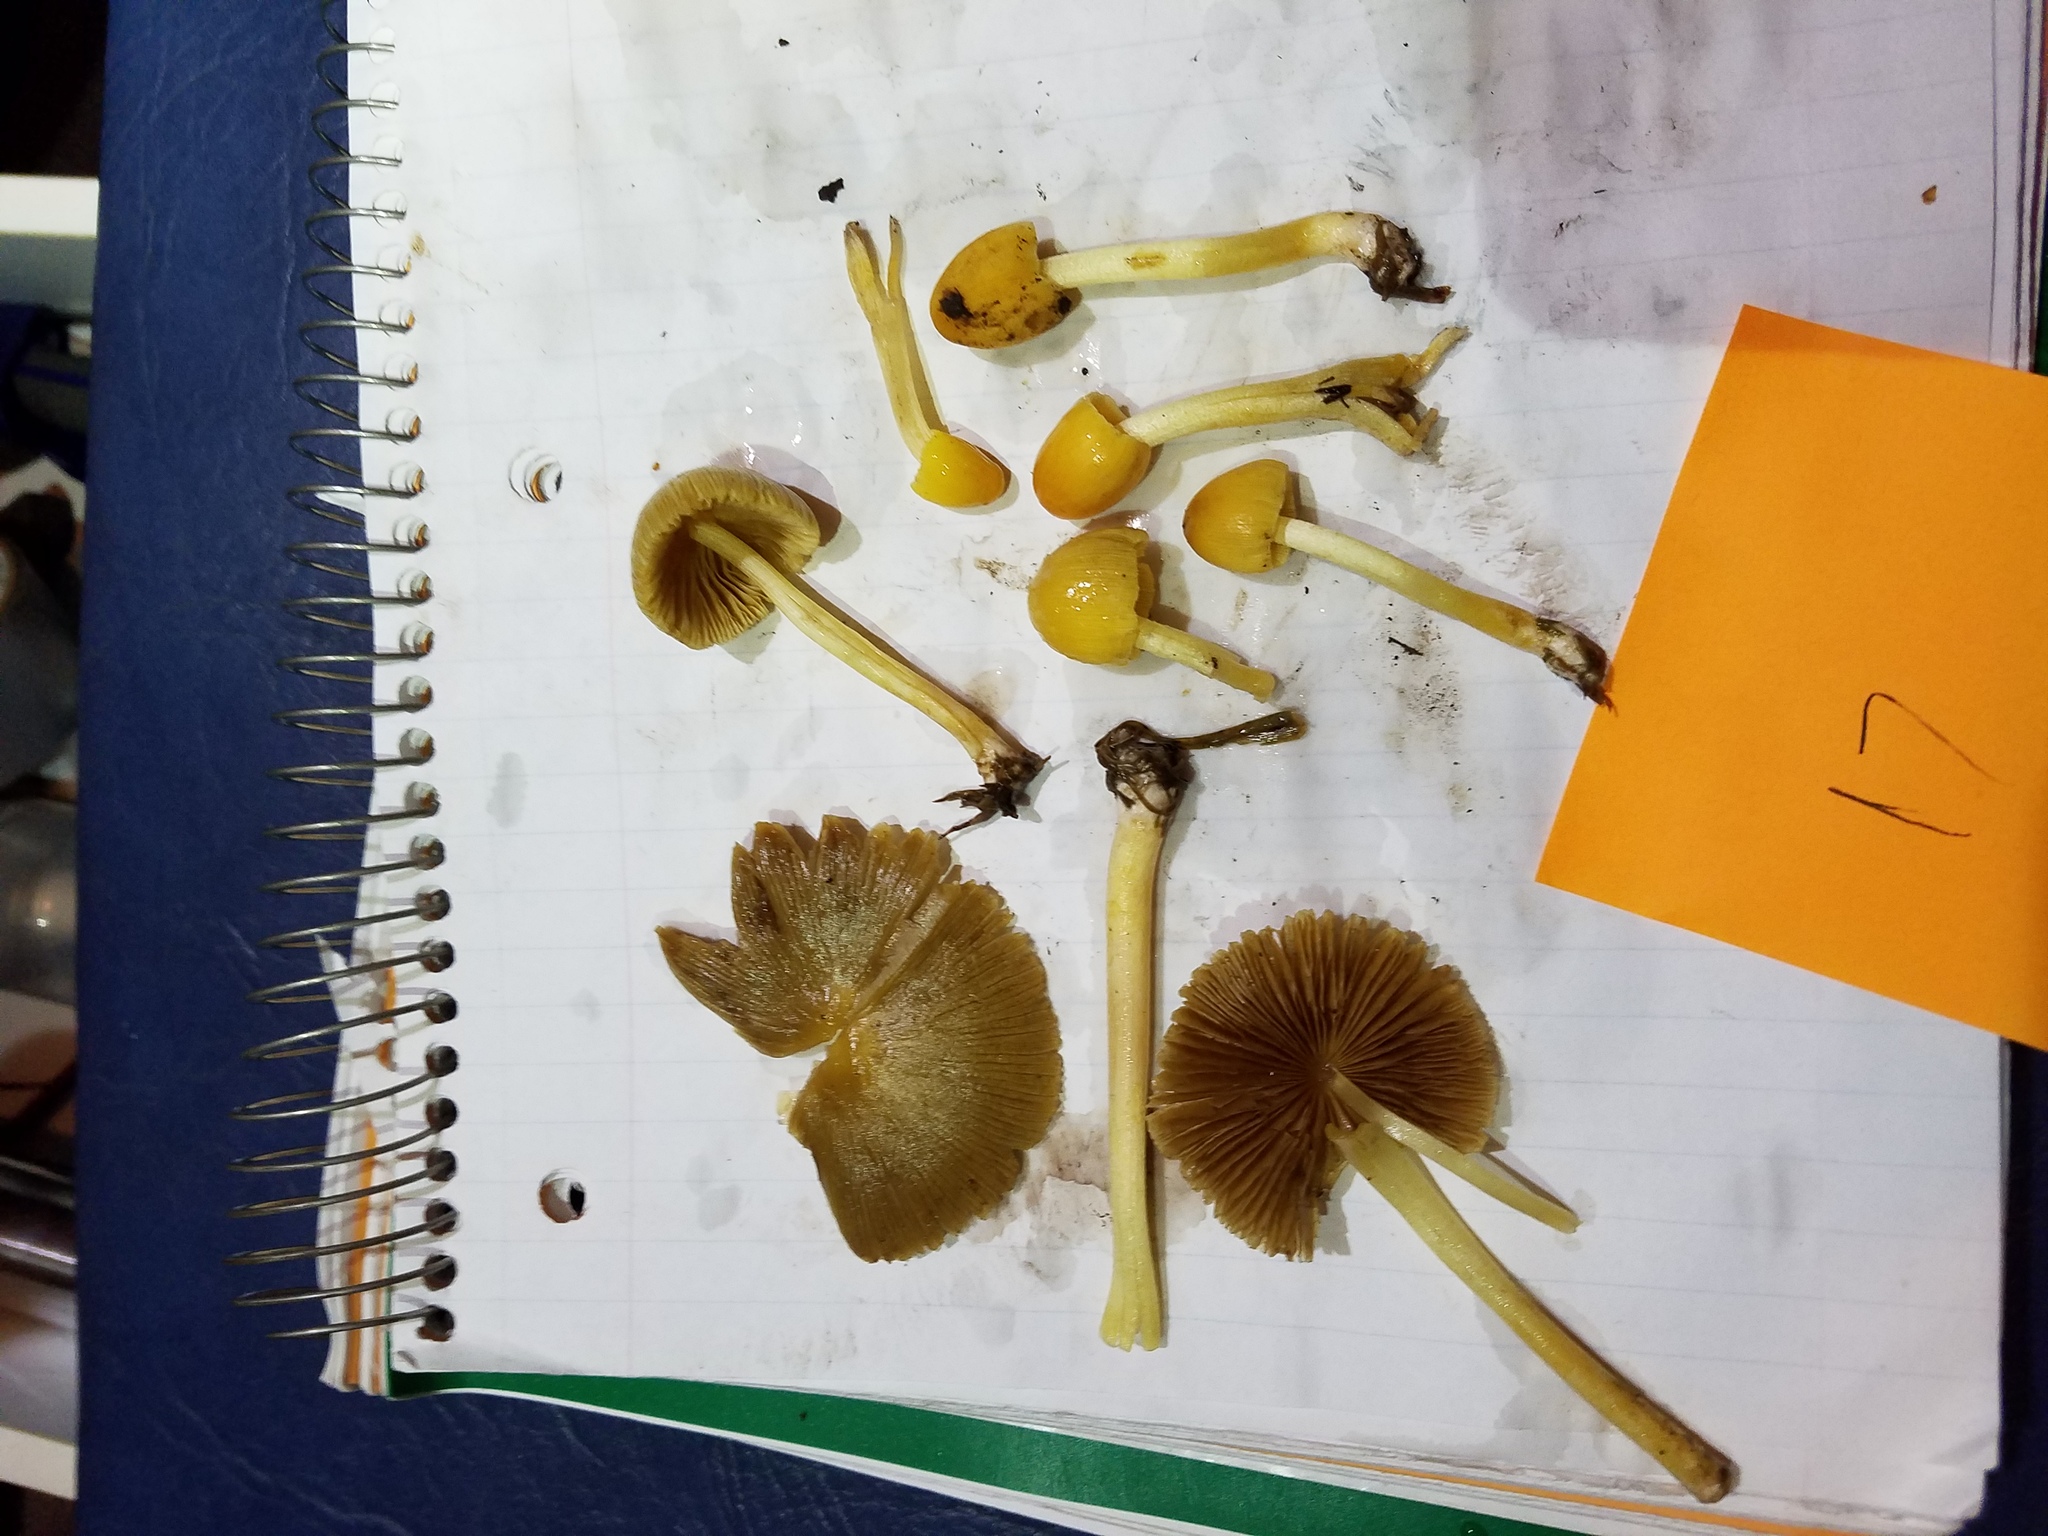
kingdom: Fungi
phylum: Basidiomycota
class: Agaricomycetes
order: Agaricales
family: Bolbitiaceae
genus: Bolbitius
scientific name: Bolbitius titubans
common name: Yellow fieldcap
